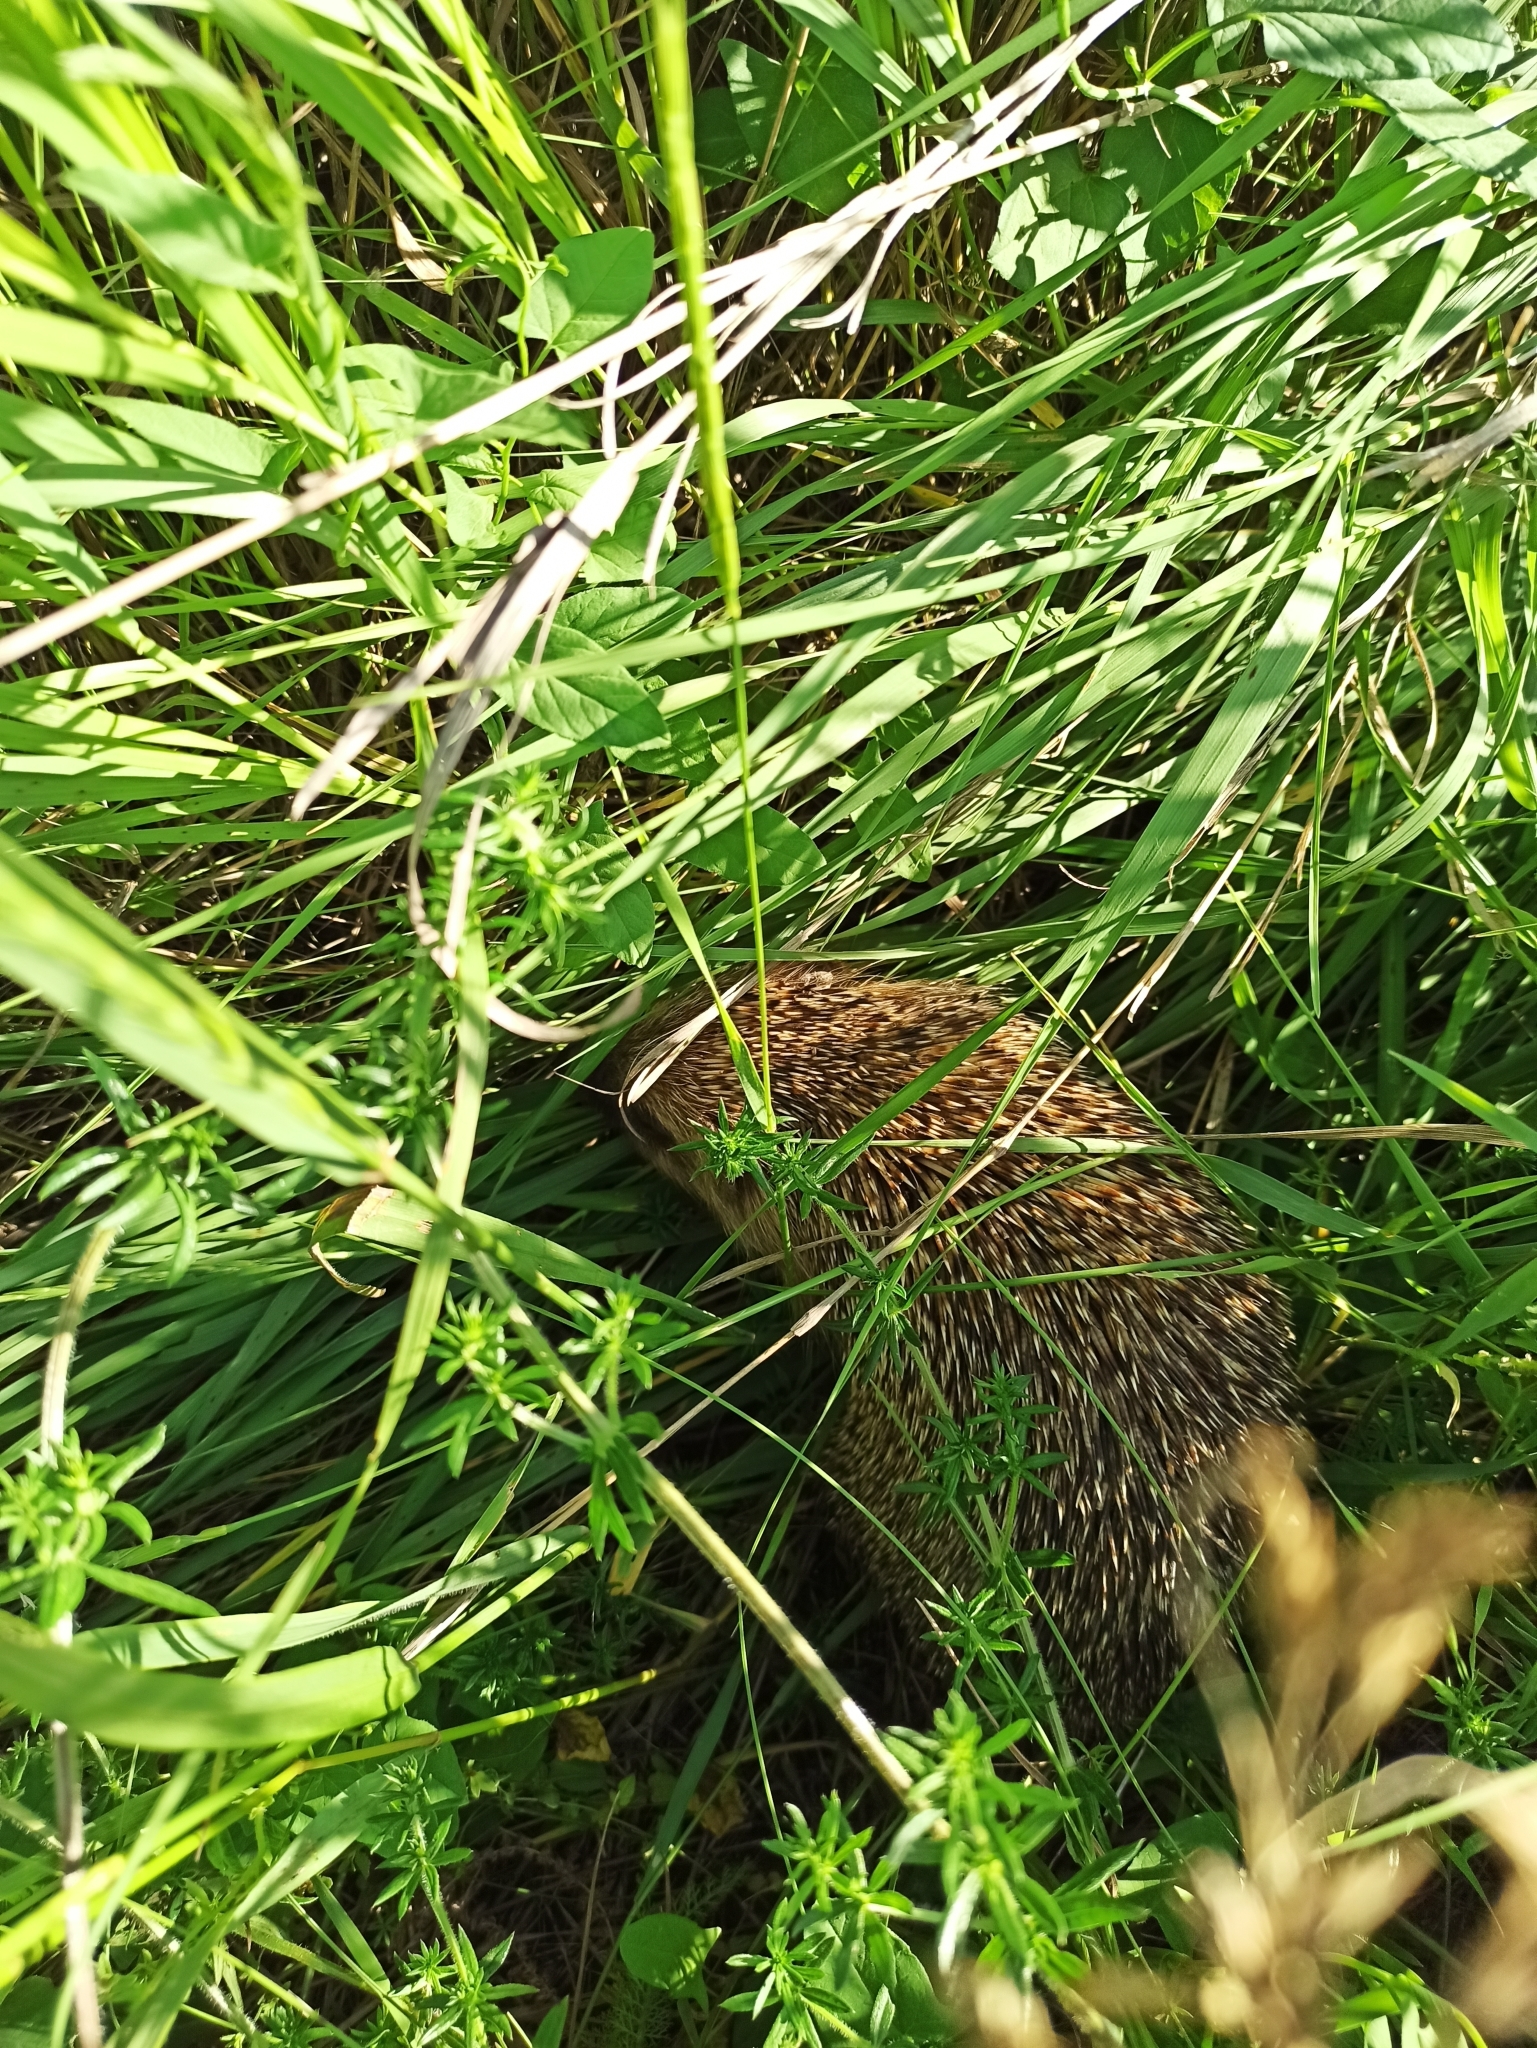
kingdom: Animalia
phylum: Chordata
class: Mammalia
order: Erinaceomorpha
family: Erinaceidae
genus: Erinaceus
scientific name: Erinaceus roumanicus
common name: Northern white-breasted hedgehog
